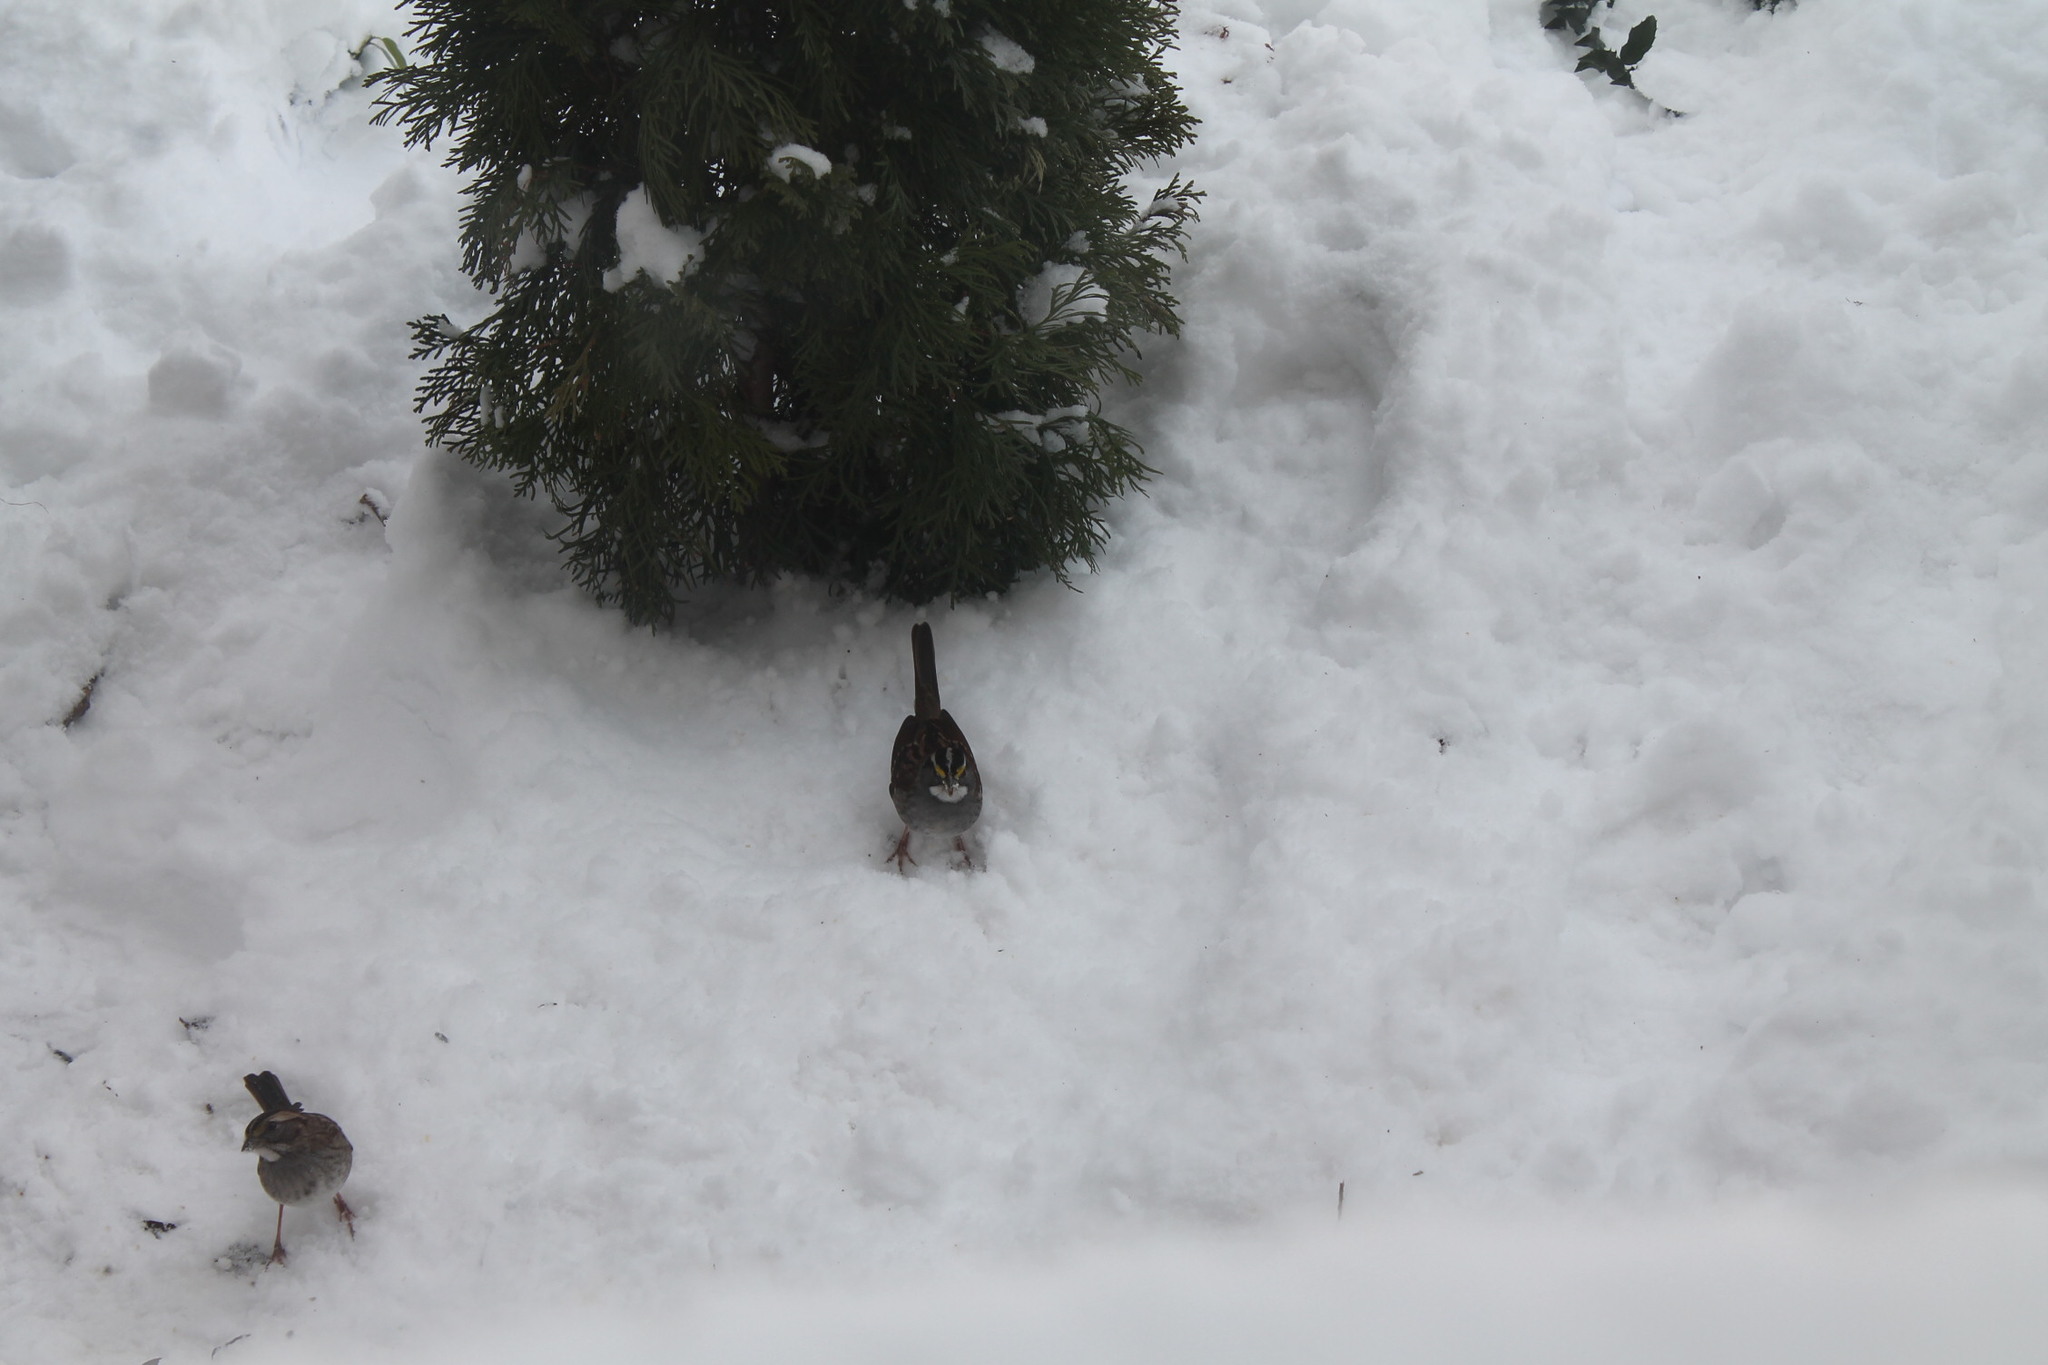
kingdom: Animalia
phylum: Chordata
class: Aves
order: Passeriformes
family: Passerellidae
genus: Zonotrichia
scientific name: Zonotrichia albicollis
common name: White-throated sparrow
